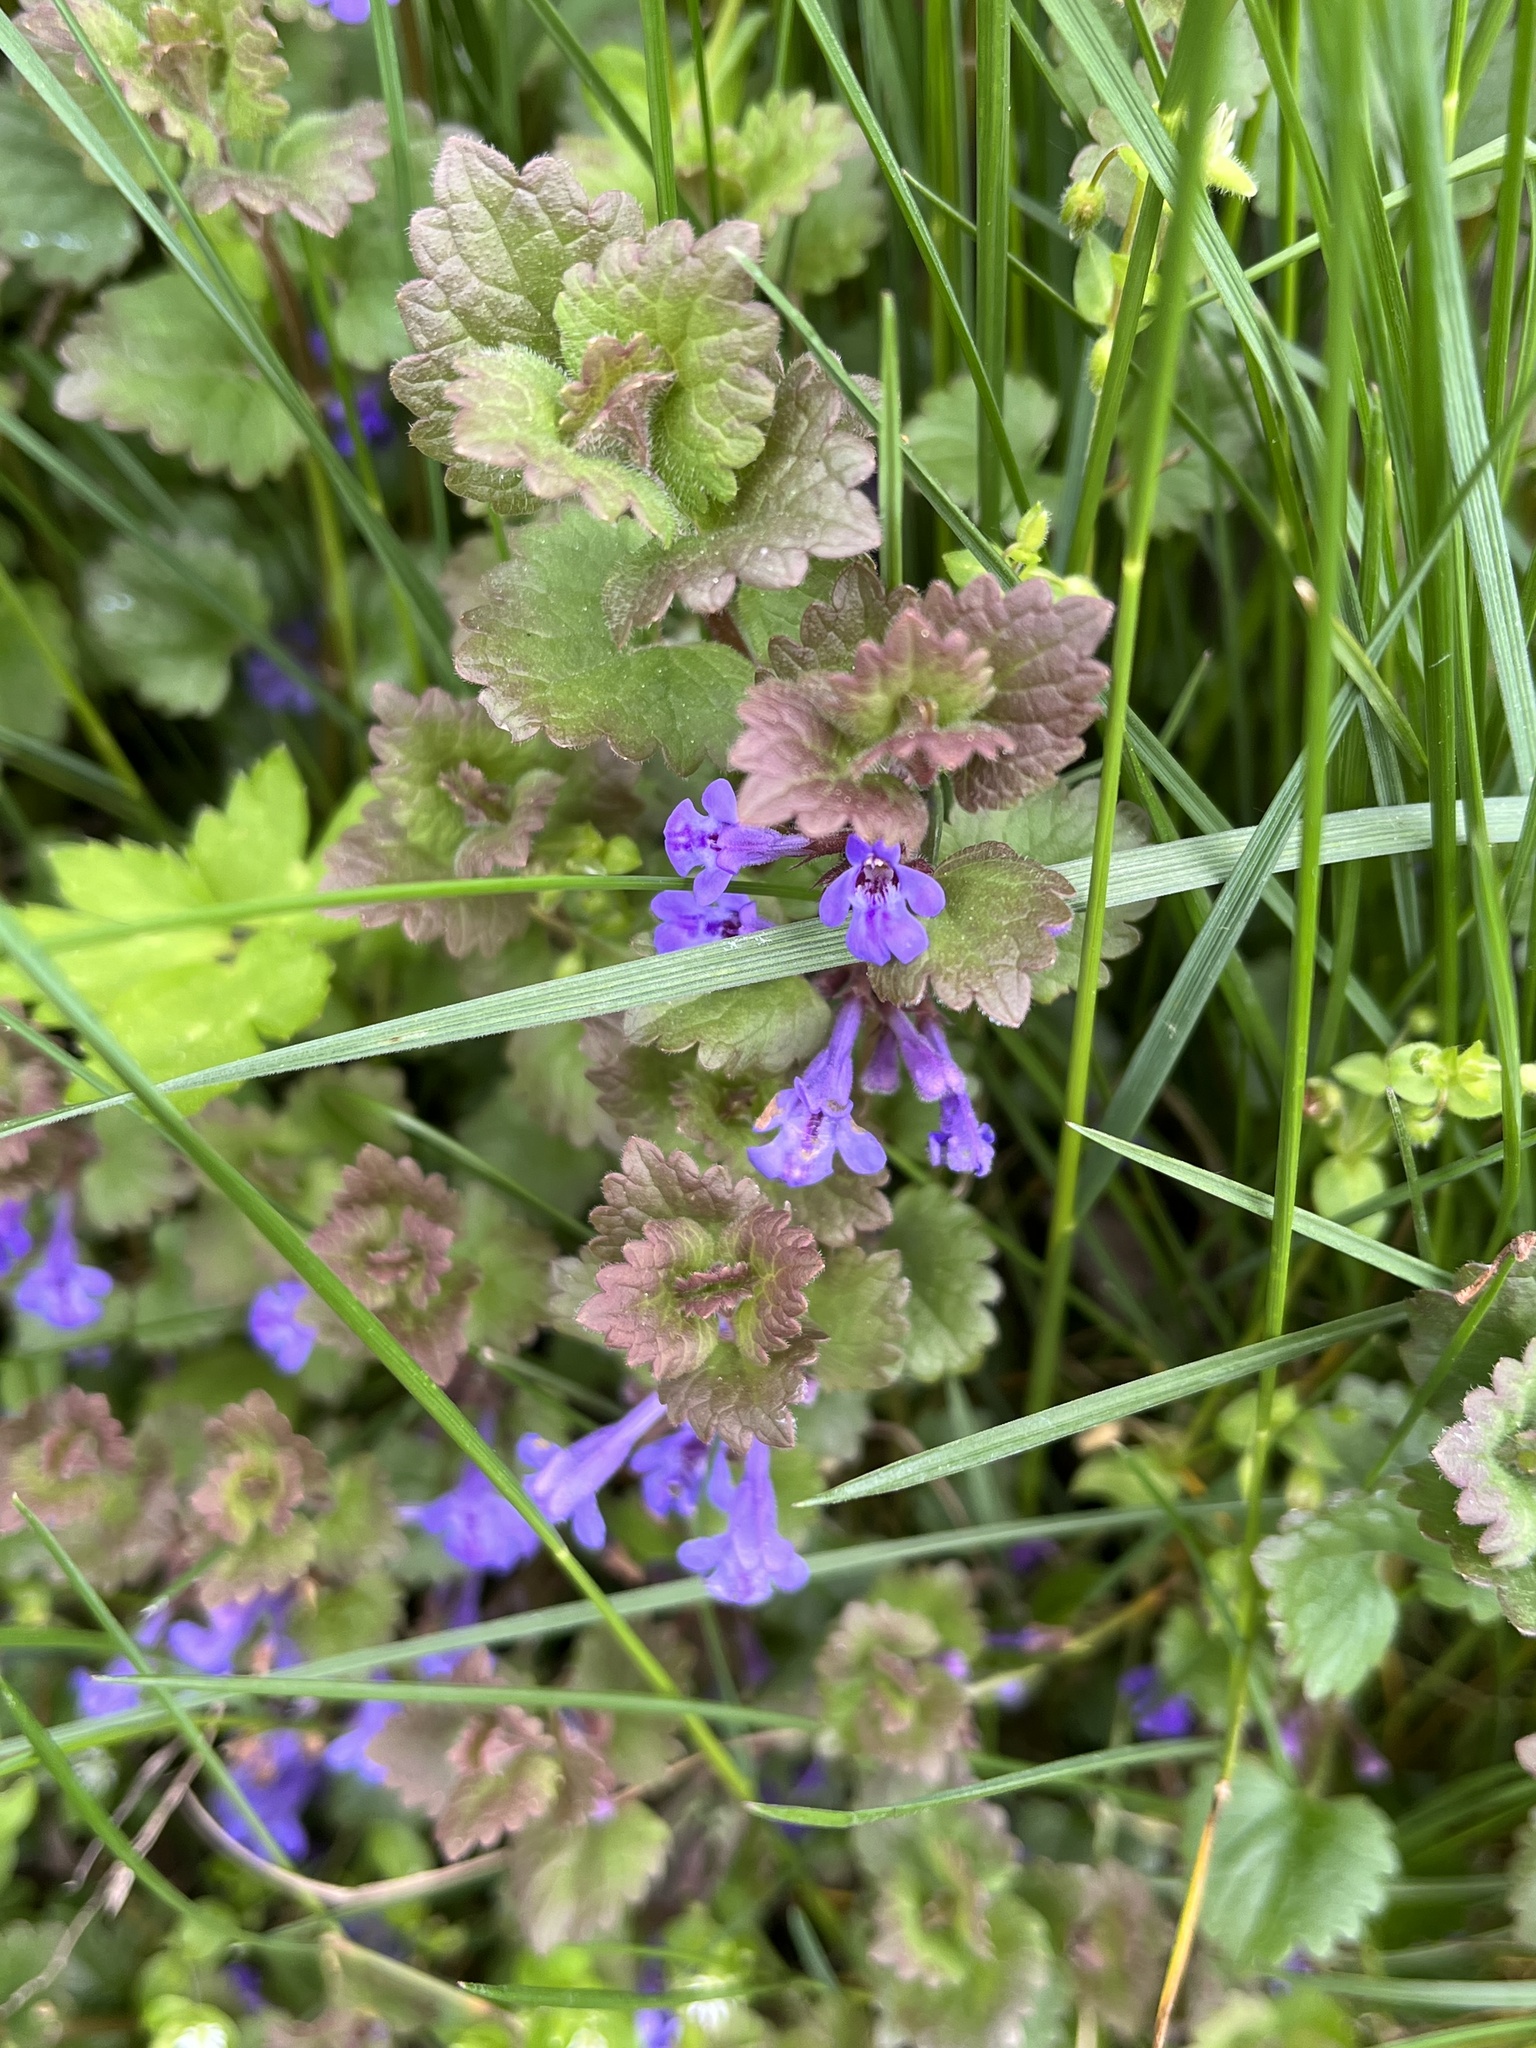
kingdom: Plantae
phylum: Tracheophyta
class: Magnoliopsida
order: Lamiales
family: Lamiaceae
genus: Glechoma
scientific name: Glechoma hederacea
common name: Ground ivy
